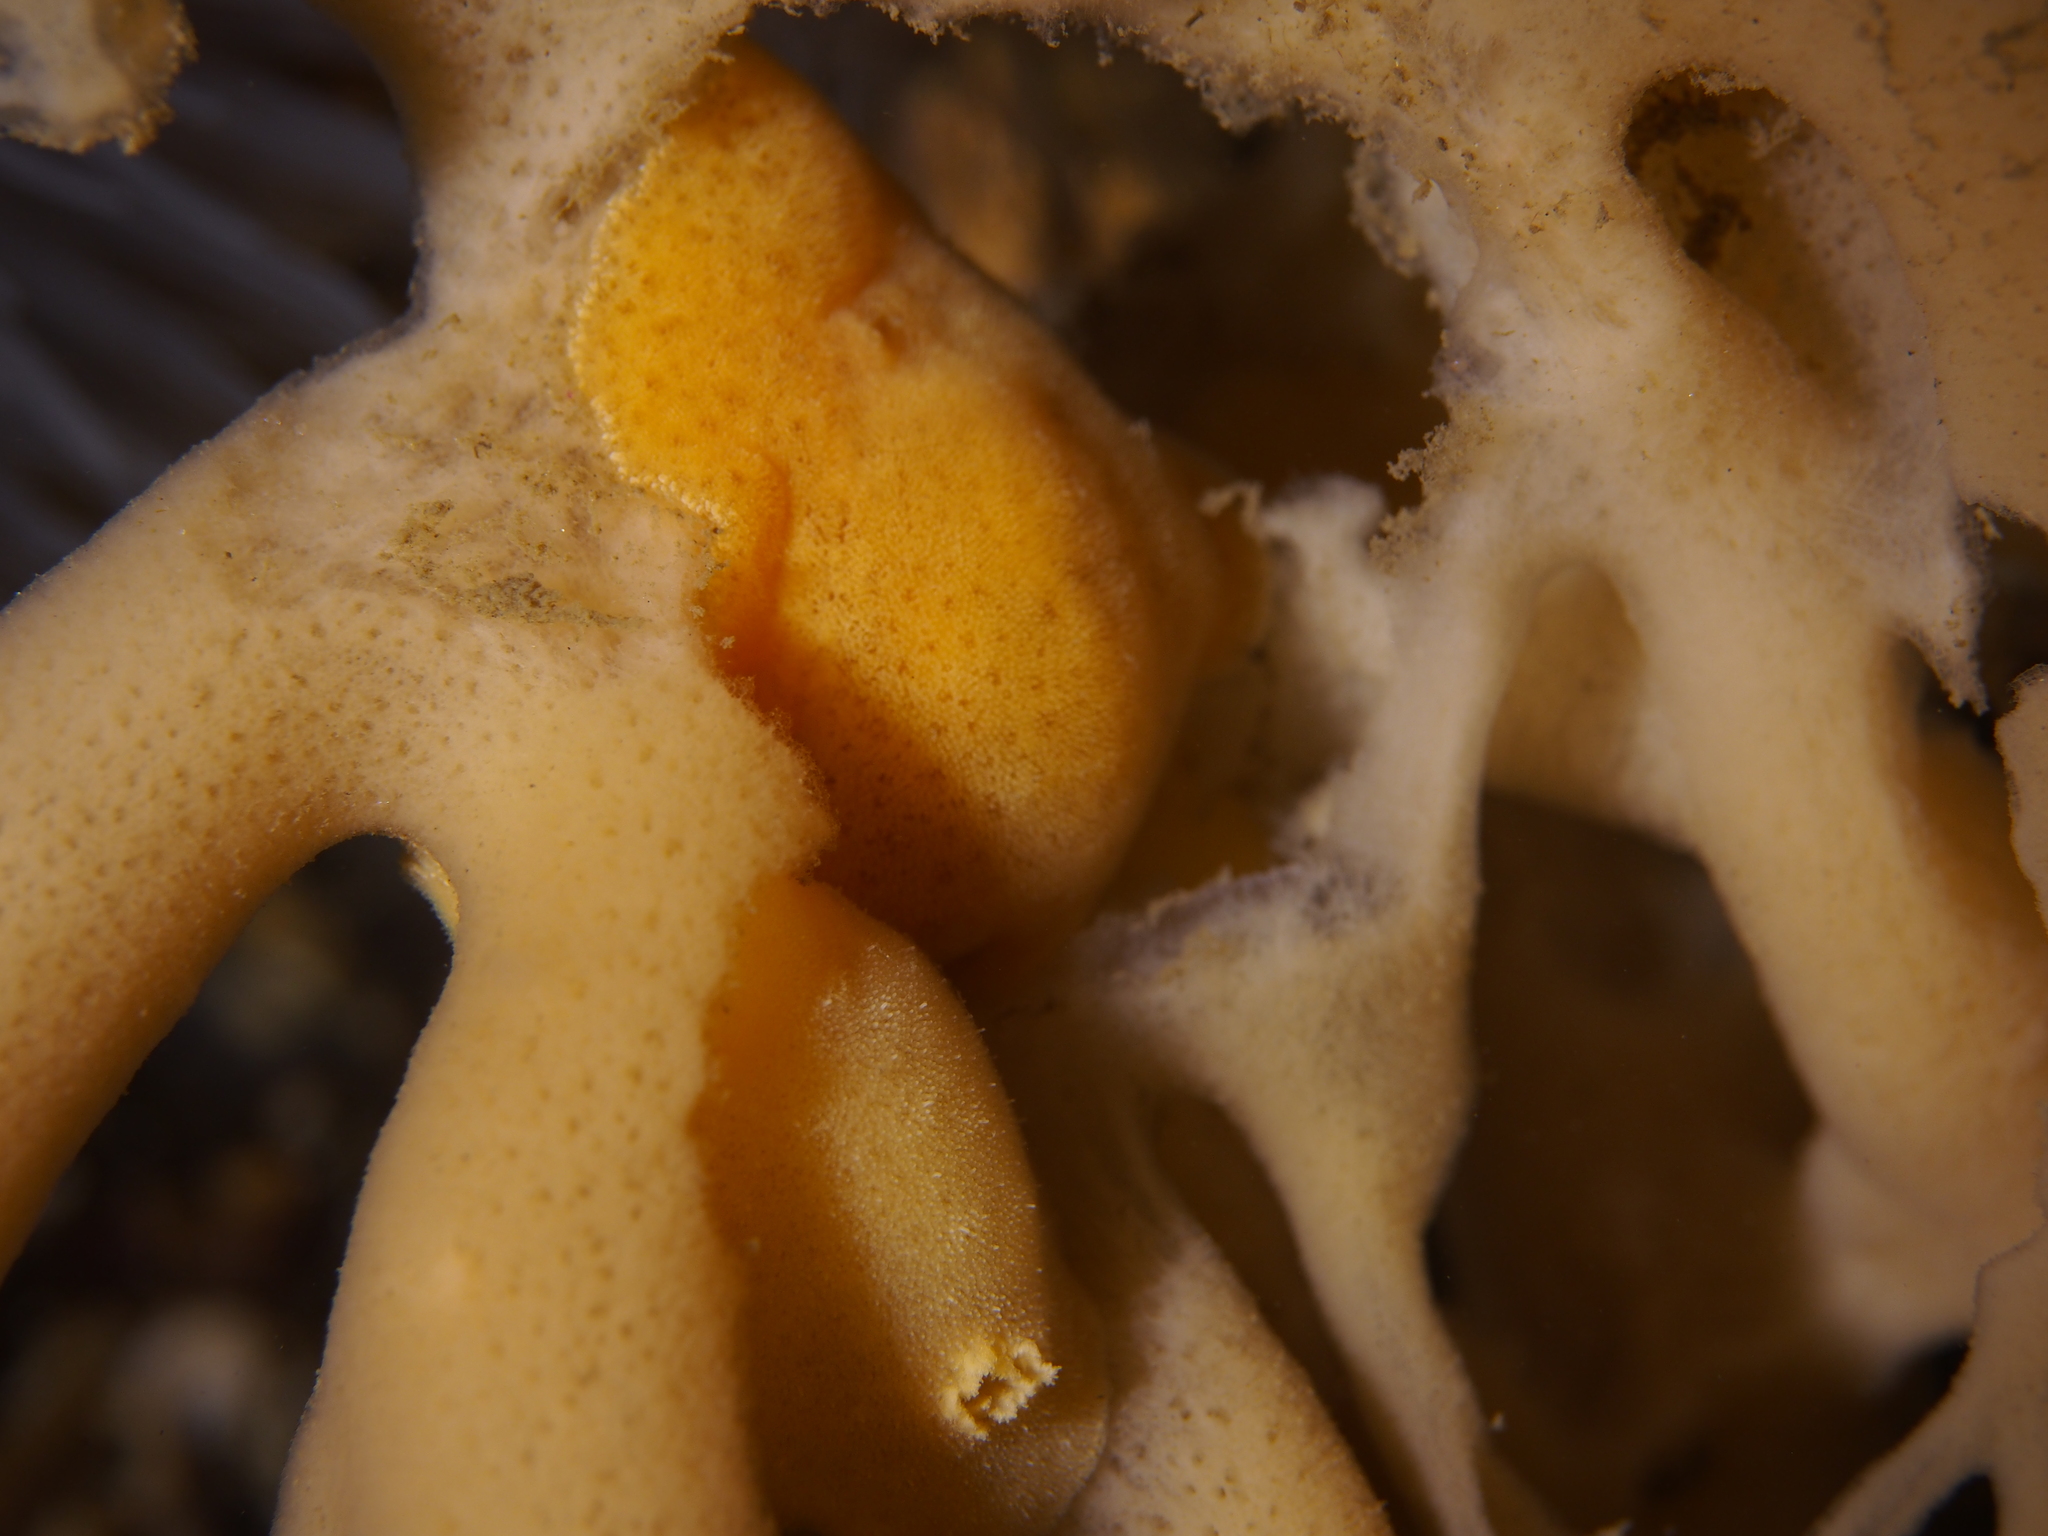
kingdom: Animalia
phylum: Mollusca
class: Gastropoda
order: Nudibranchia
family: Discodorididae
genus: Jorunna
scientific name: Jorunna tomentosa
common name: Grey sea slug
